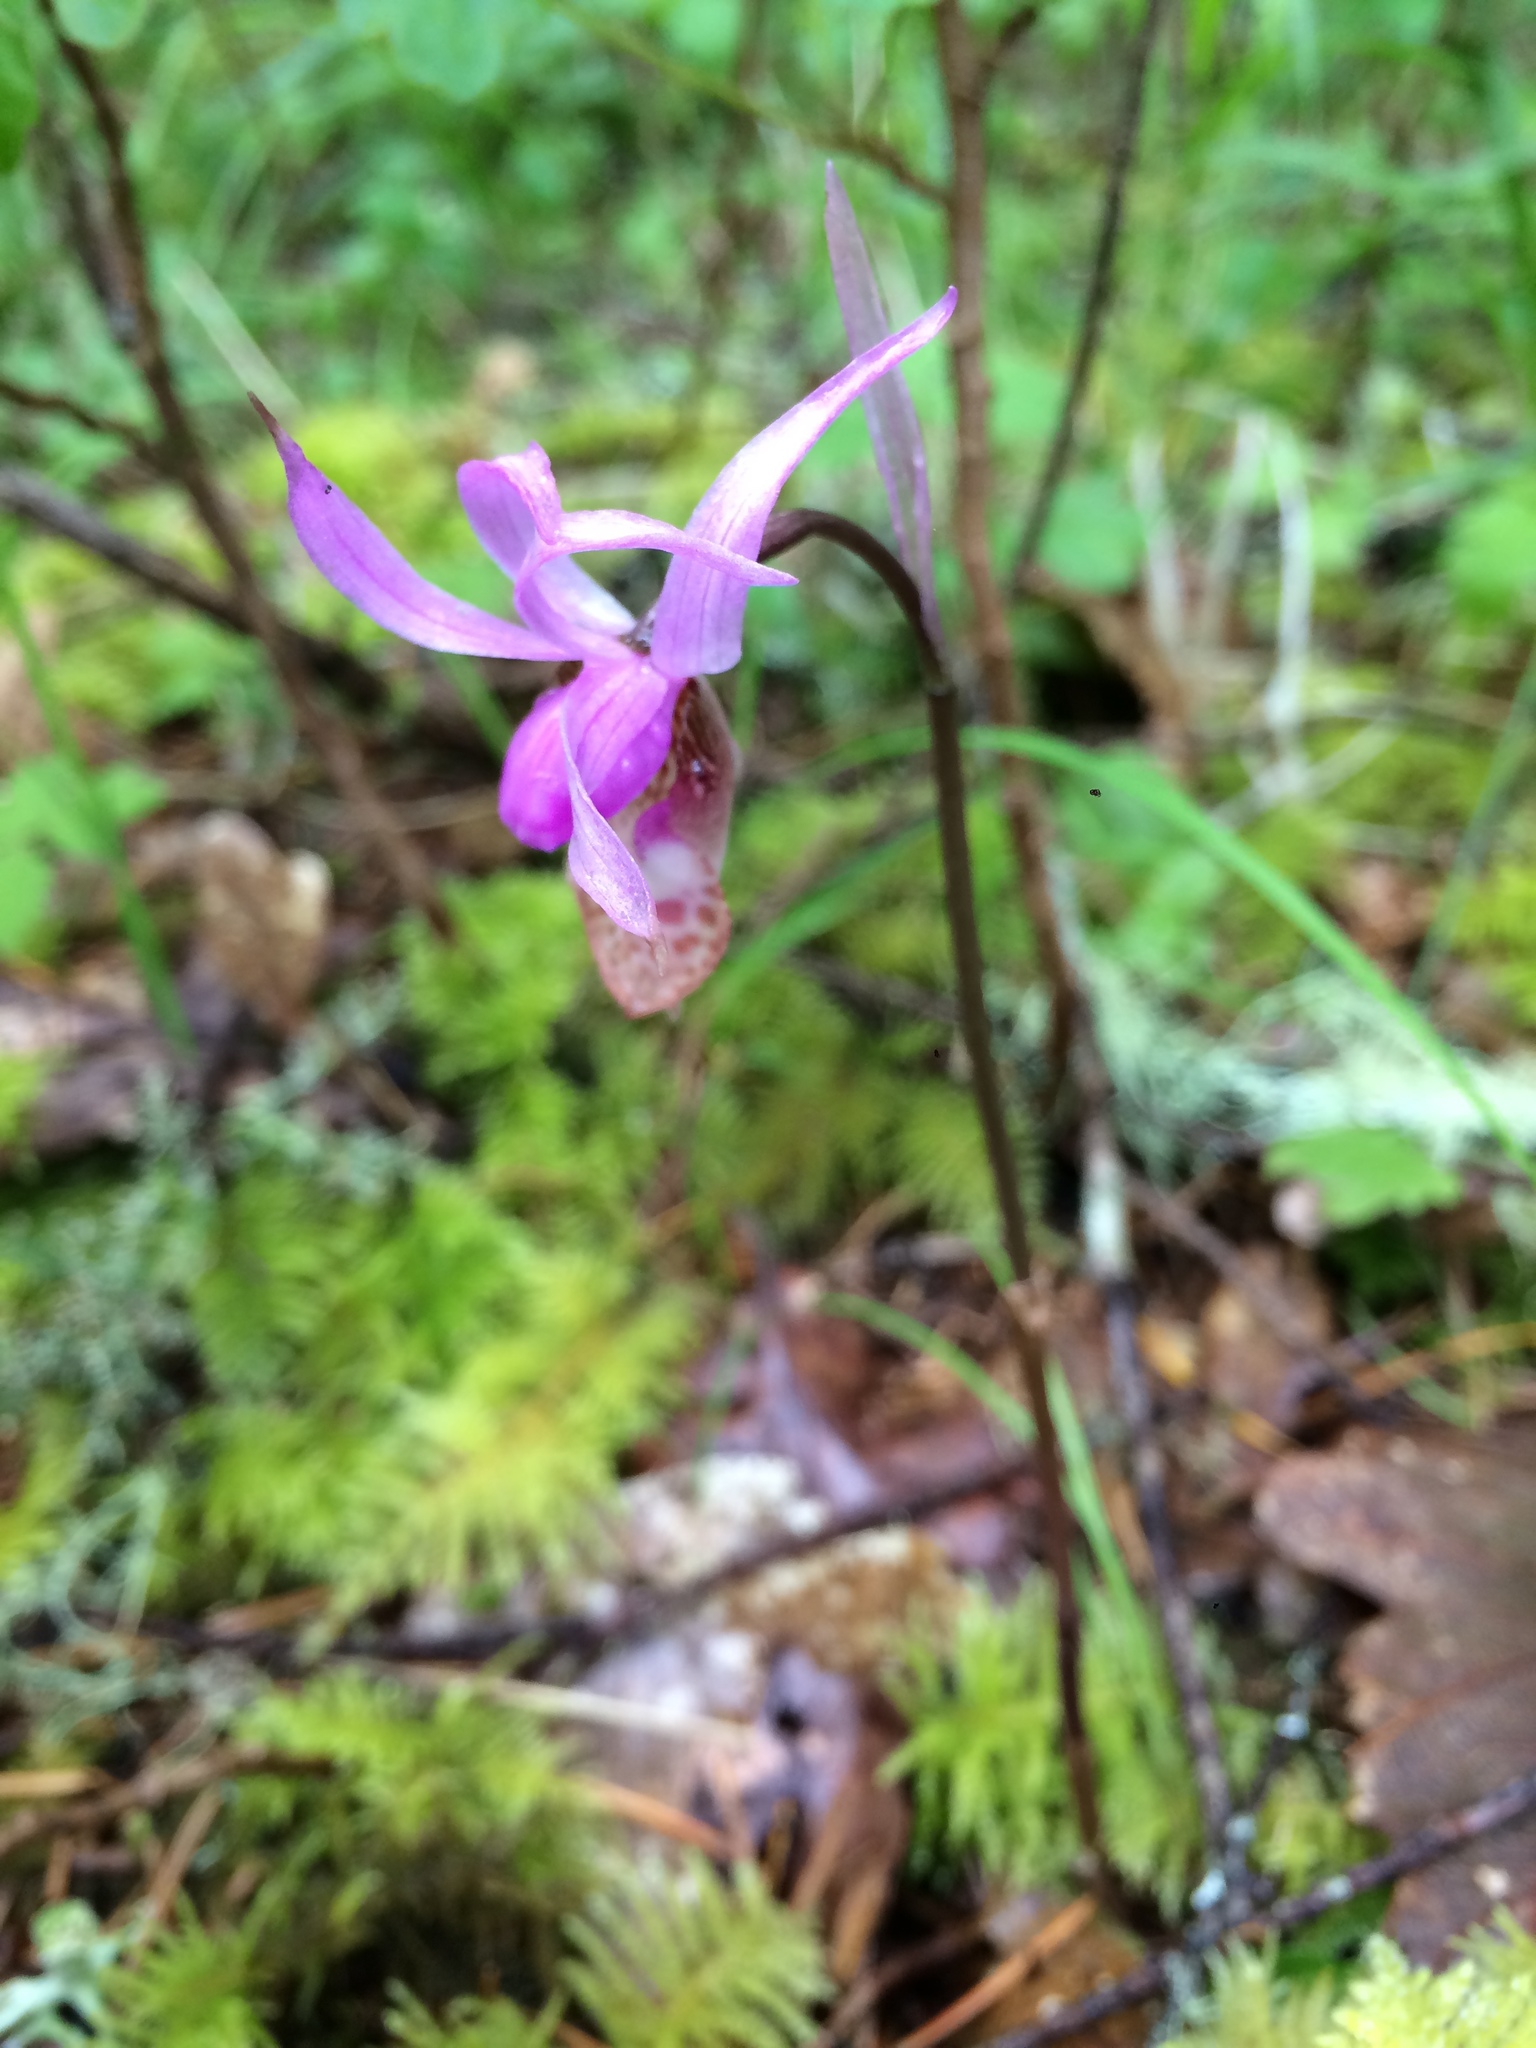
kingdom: Plantae
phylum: Tracheophyta
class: Liliopsida
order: Asparagales
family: Orchidaceae
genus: Calypso
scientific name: Calypso bulbosa
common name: Calypso
